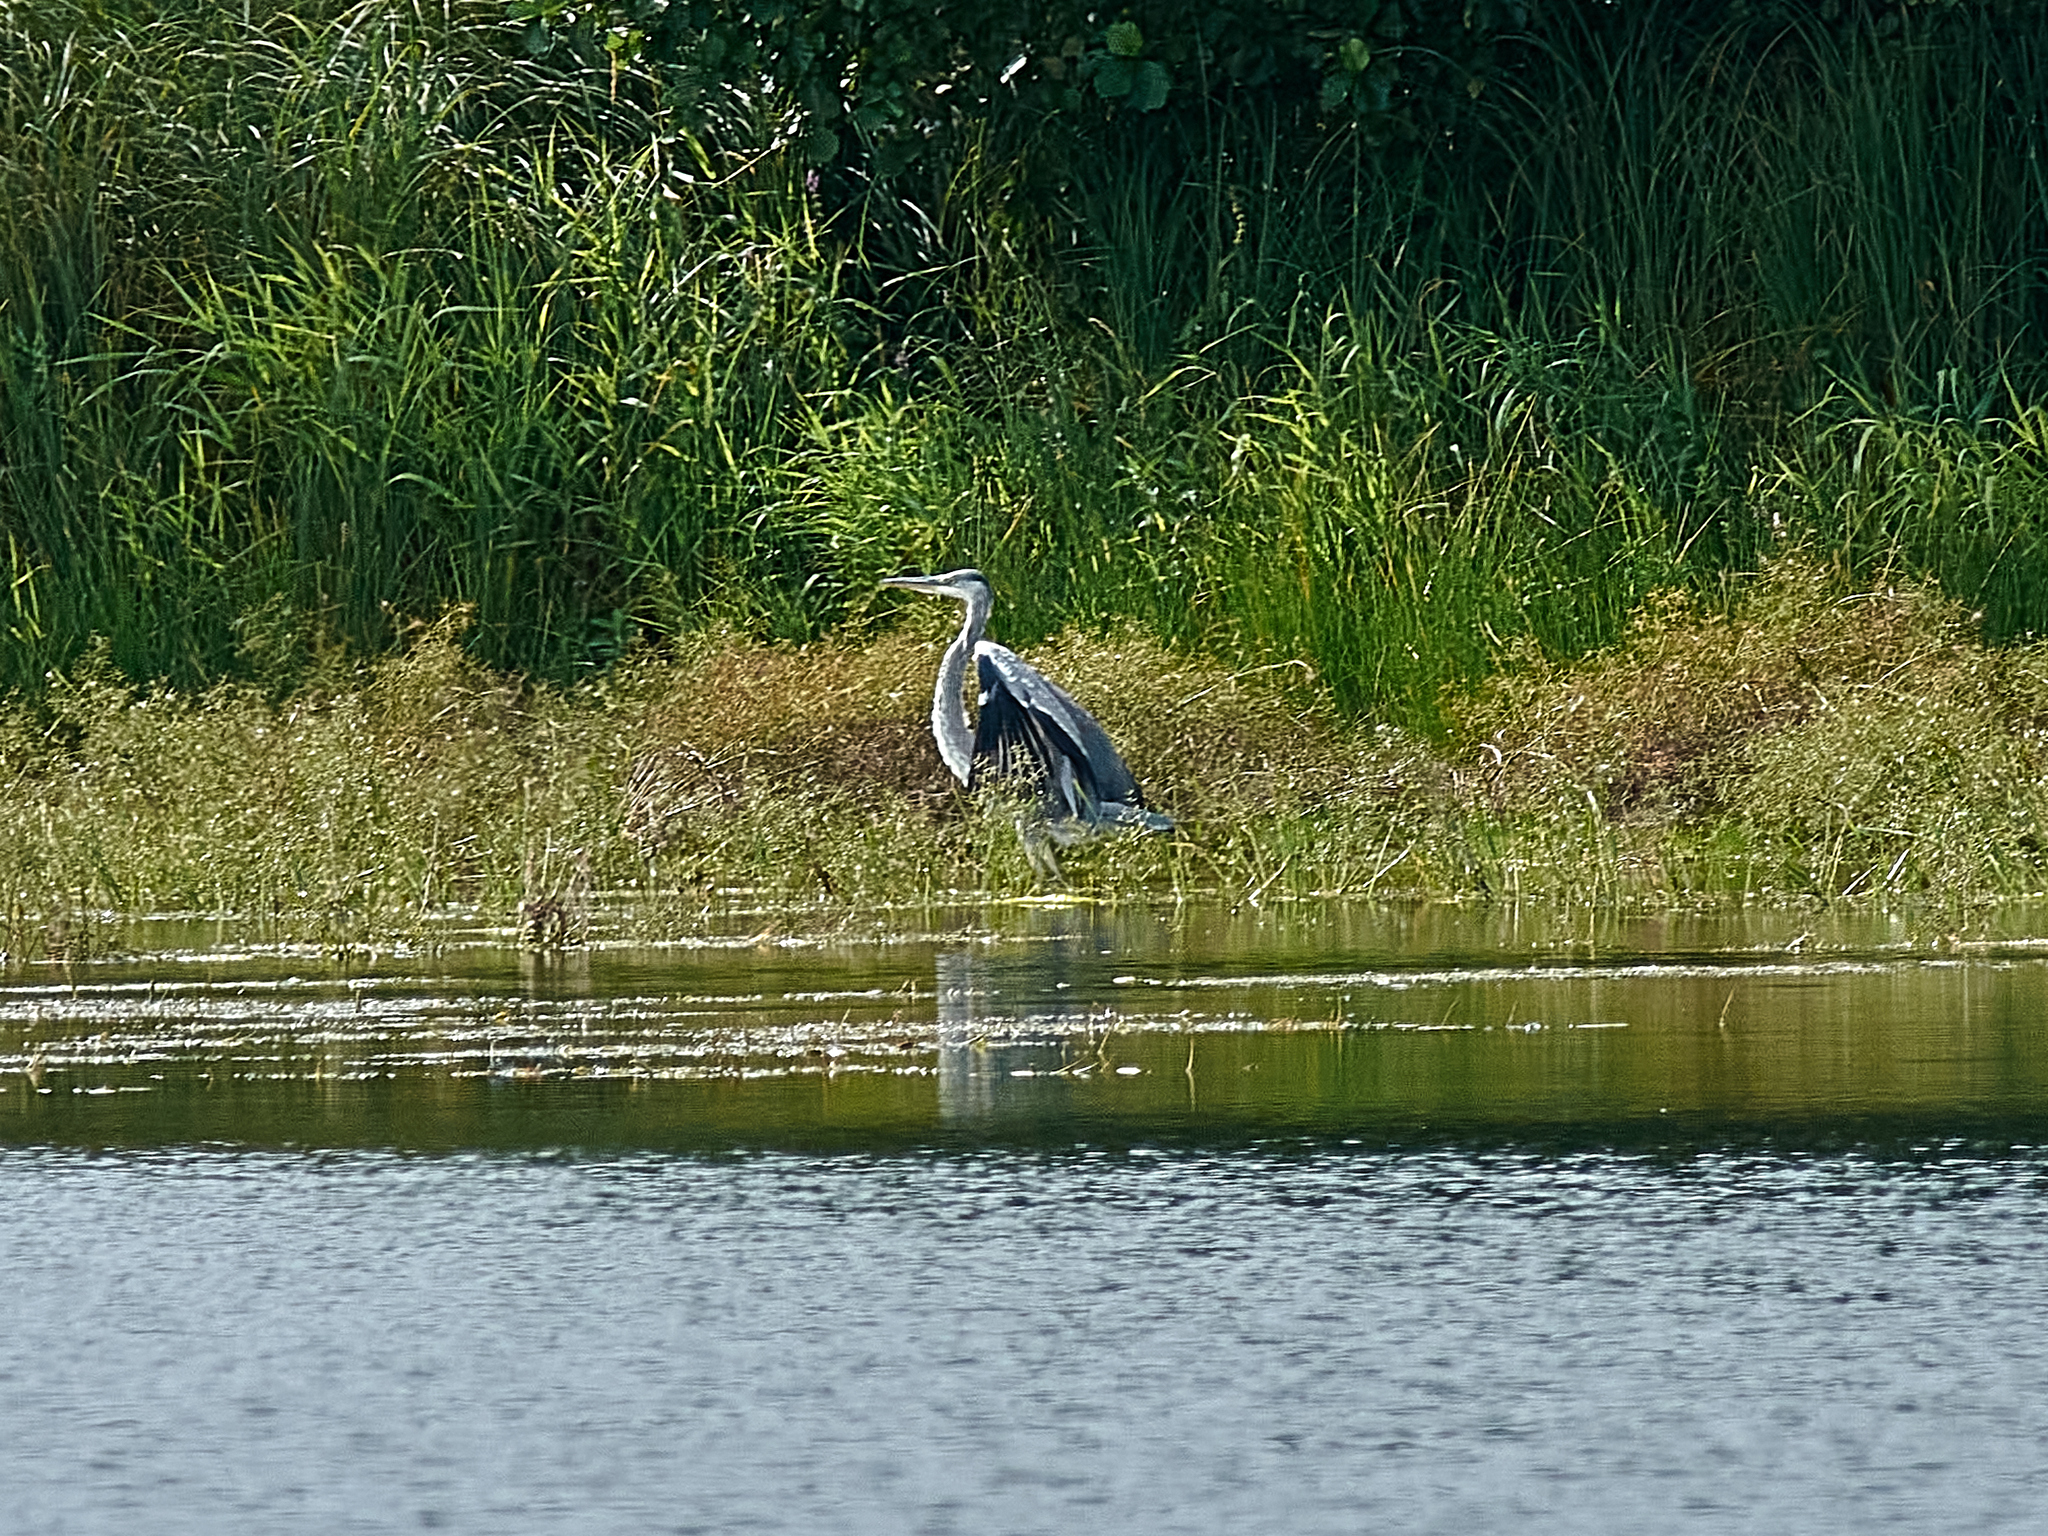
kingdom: Animalia
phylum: Chordata
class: Aves
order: Pelecaniformes
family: Ardeidae
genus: Ardea
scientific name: Ardea cinerea
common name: Grey heron
